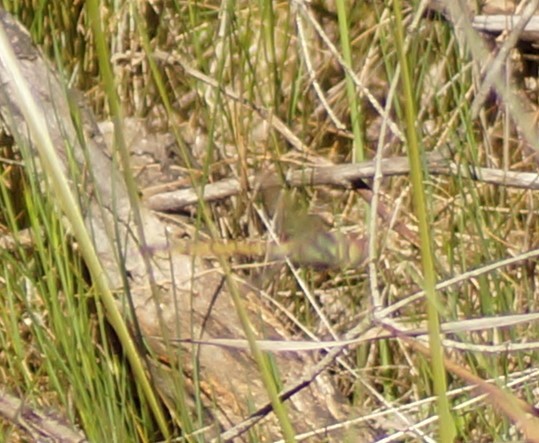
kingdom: Animalia
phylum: Arthropoda
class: Insecta
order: Odonata
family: Corduliidae
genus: Hemicordulia
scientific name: Hemicordulia tau
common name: Tau emerald
